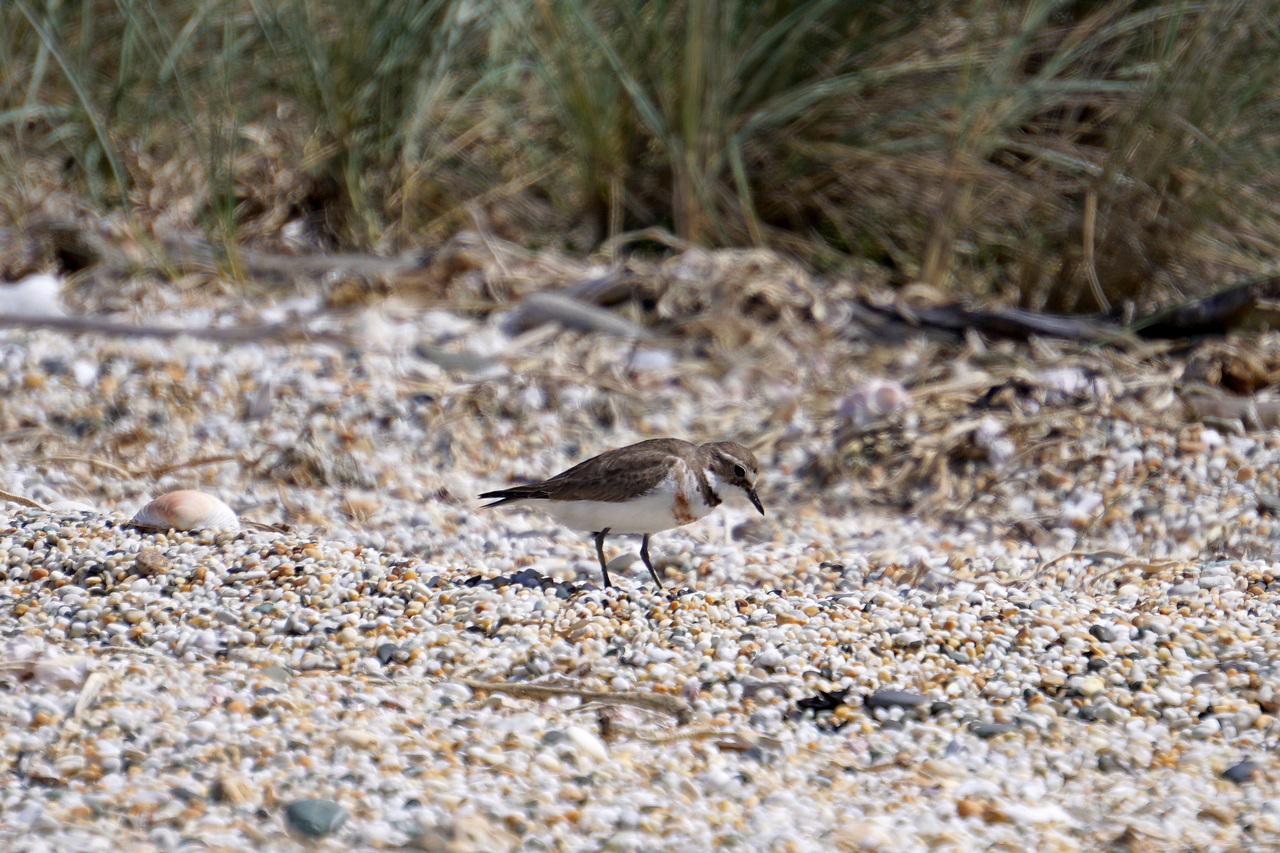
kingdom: Animalia
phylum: Chordata
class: Aves
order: Charadriiformes
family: Charadriidae
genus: Anarhynchus
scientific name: Anarhynchus
